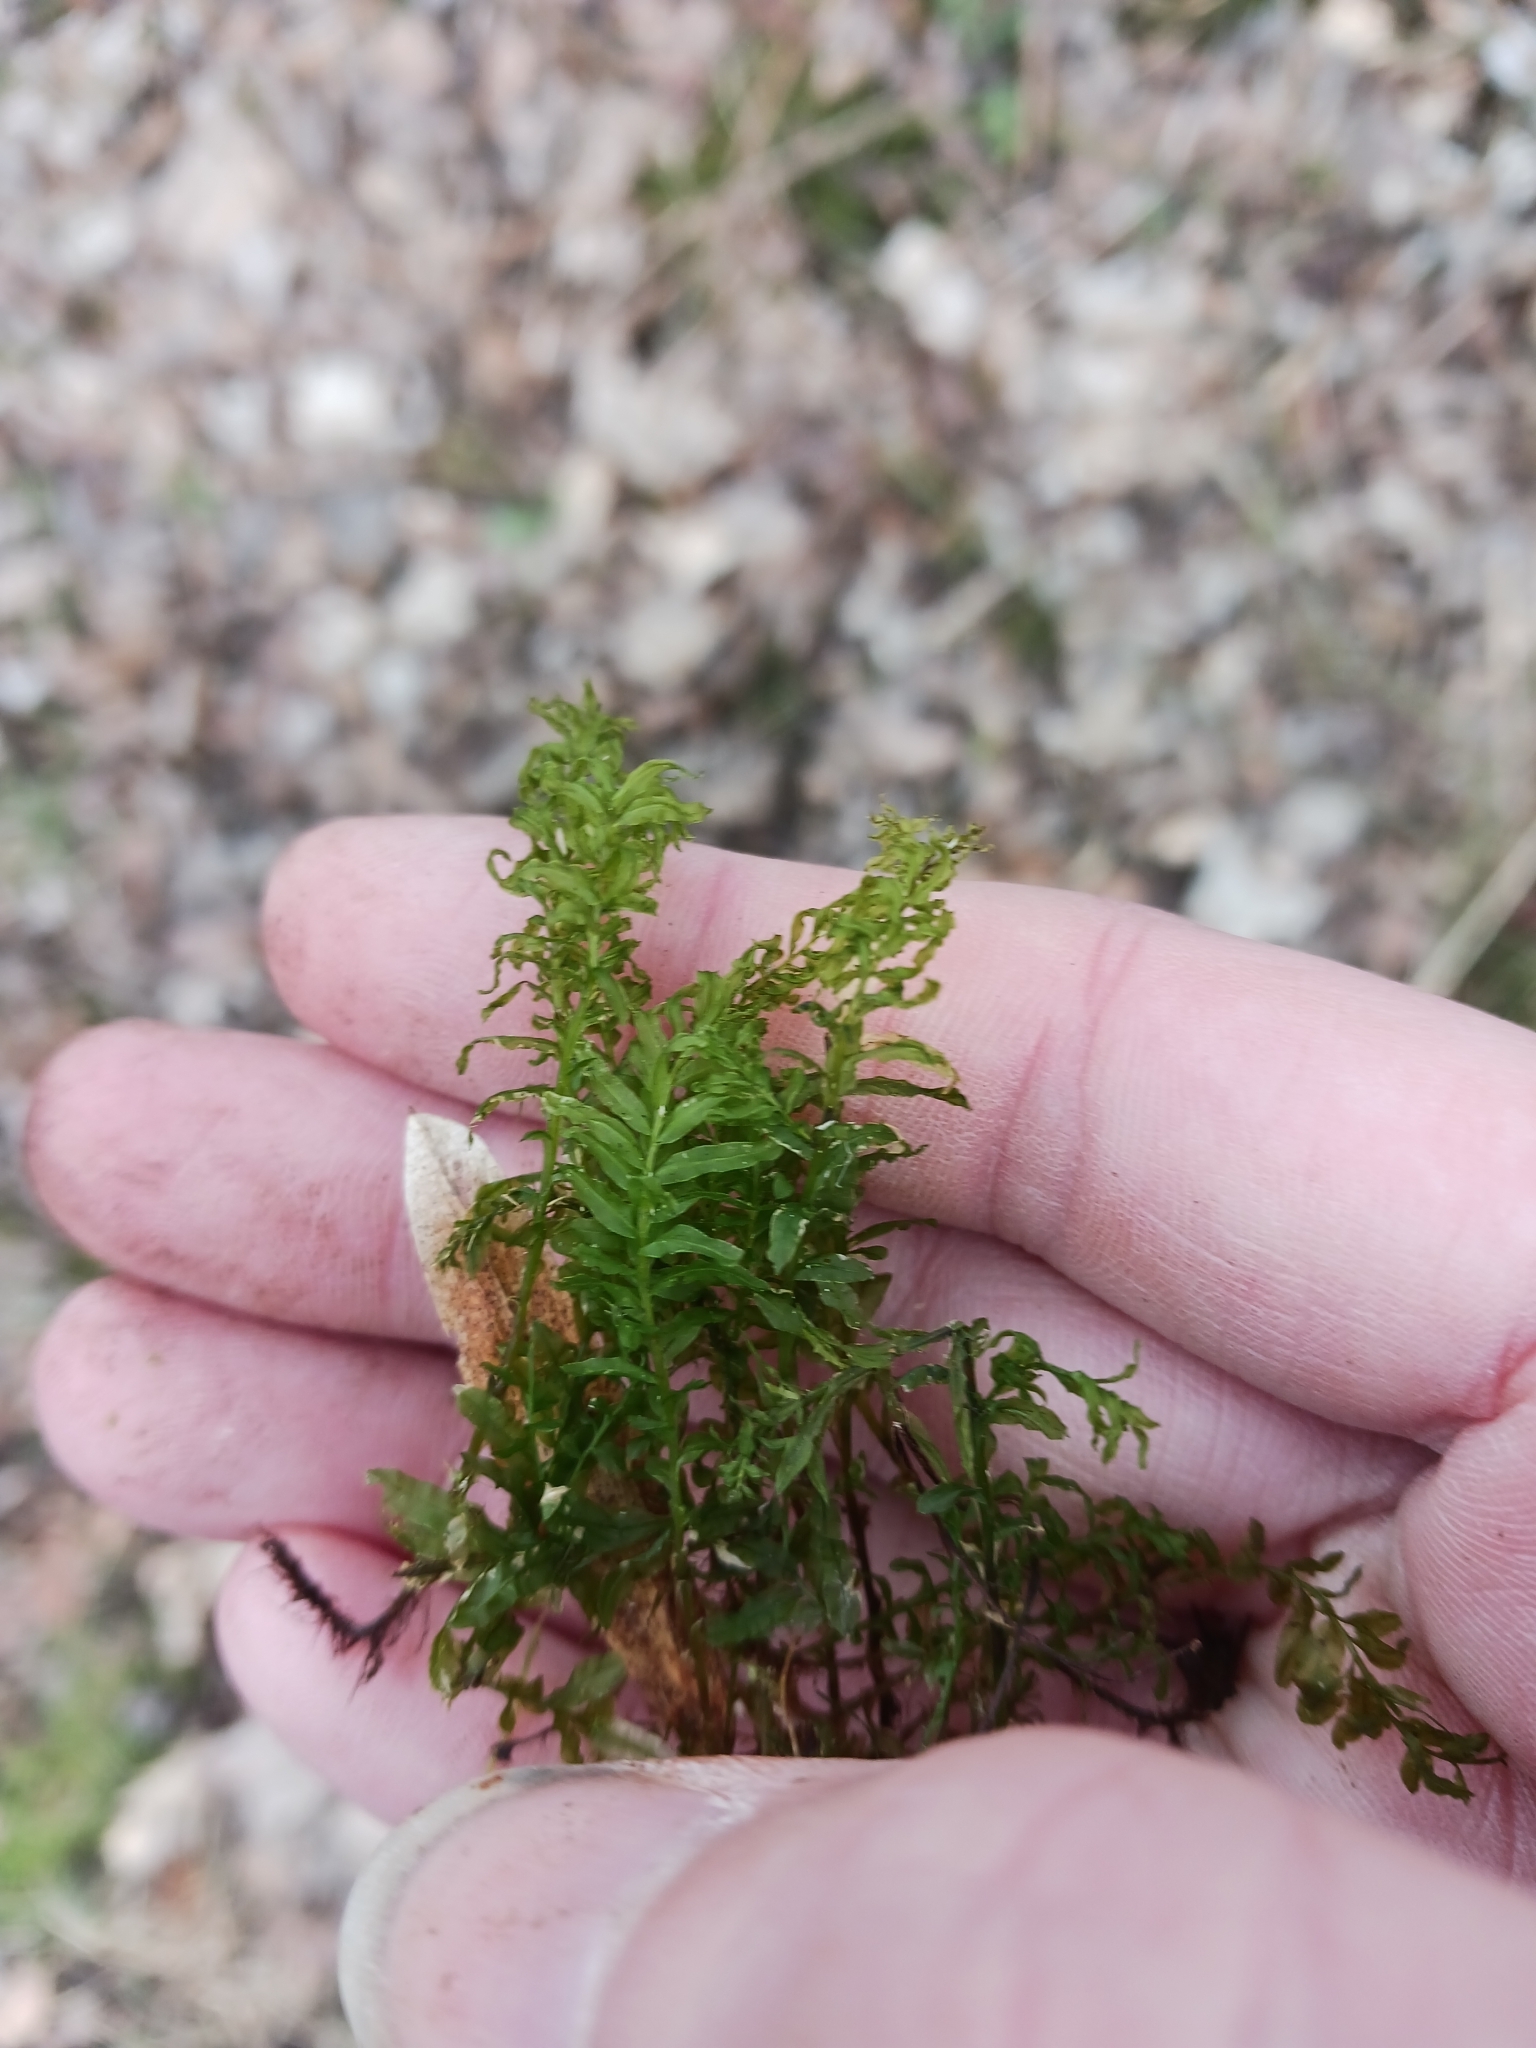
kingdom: Plantae
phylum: Bryophyta
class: Bryopsida
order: Bryales
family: Mniaceae
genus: Plagiomnium
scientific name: Plagiomnium undulatum
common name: Hart's-tongue thyme-moss
